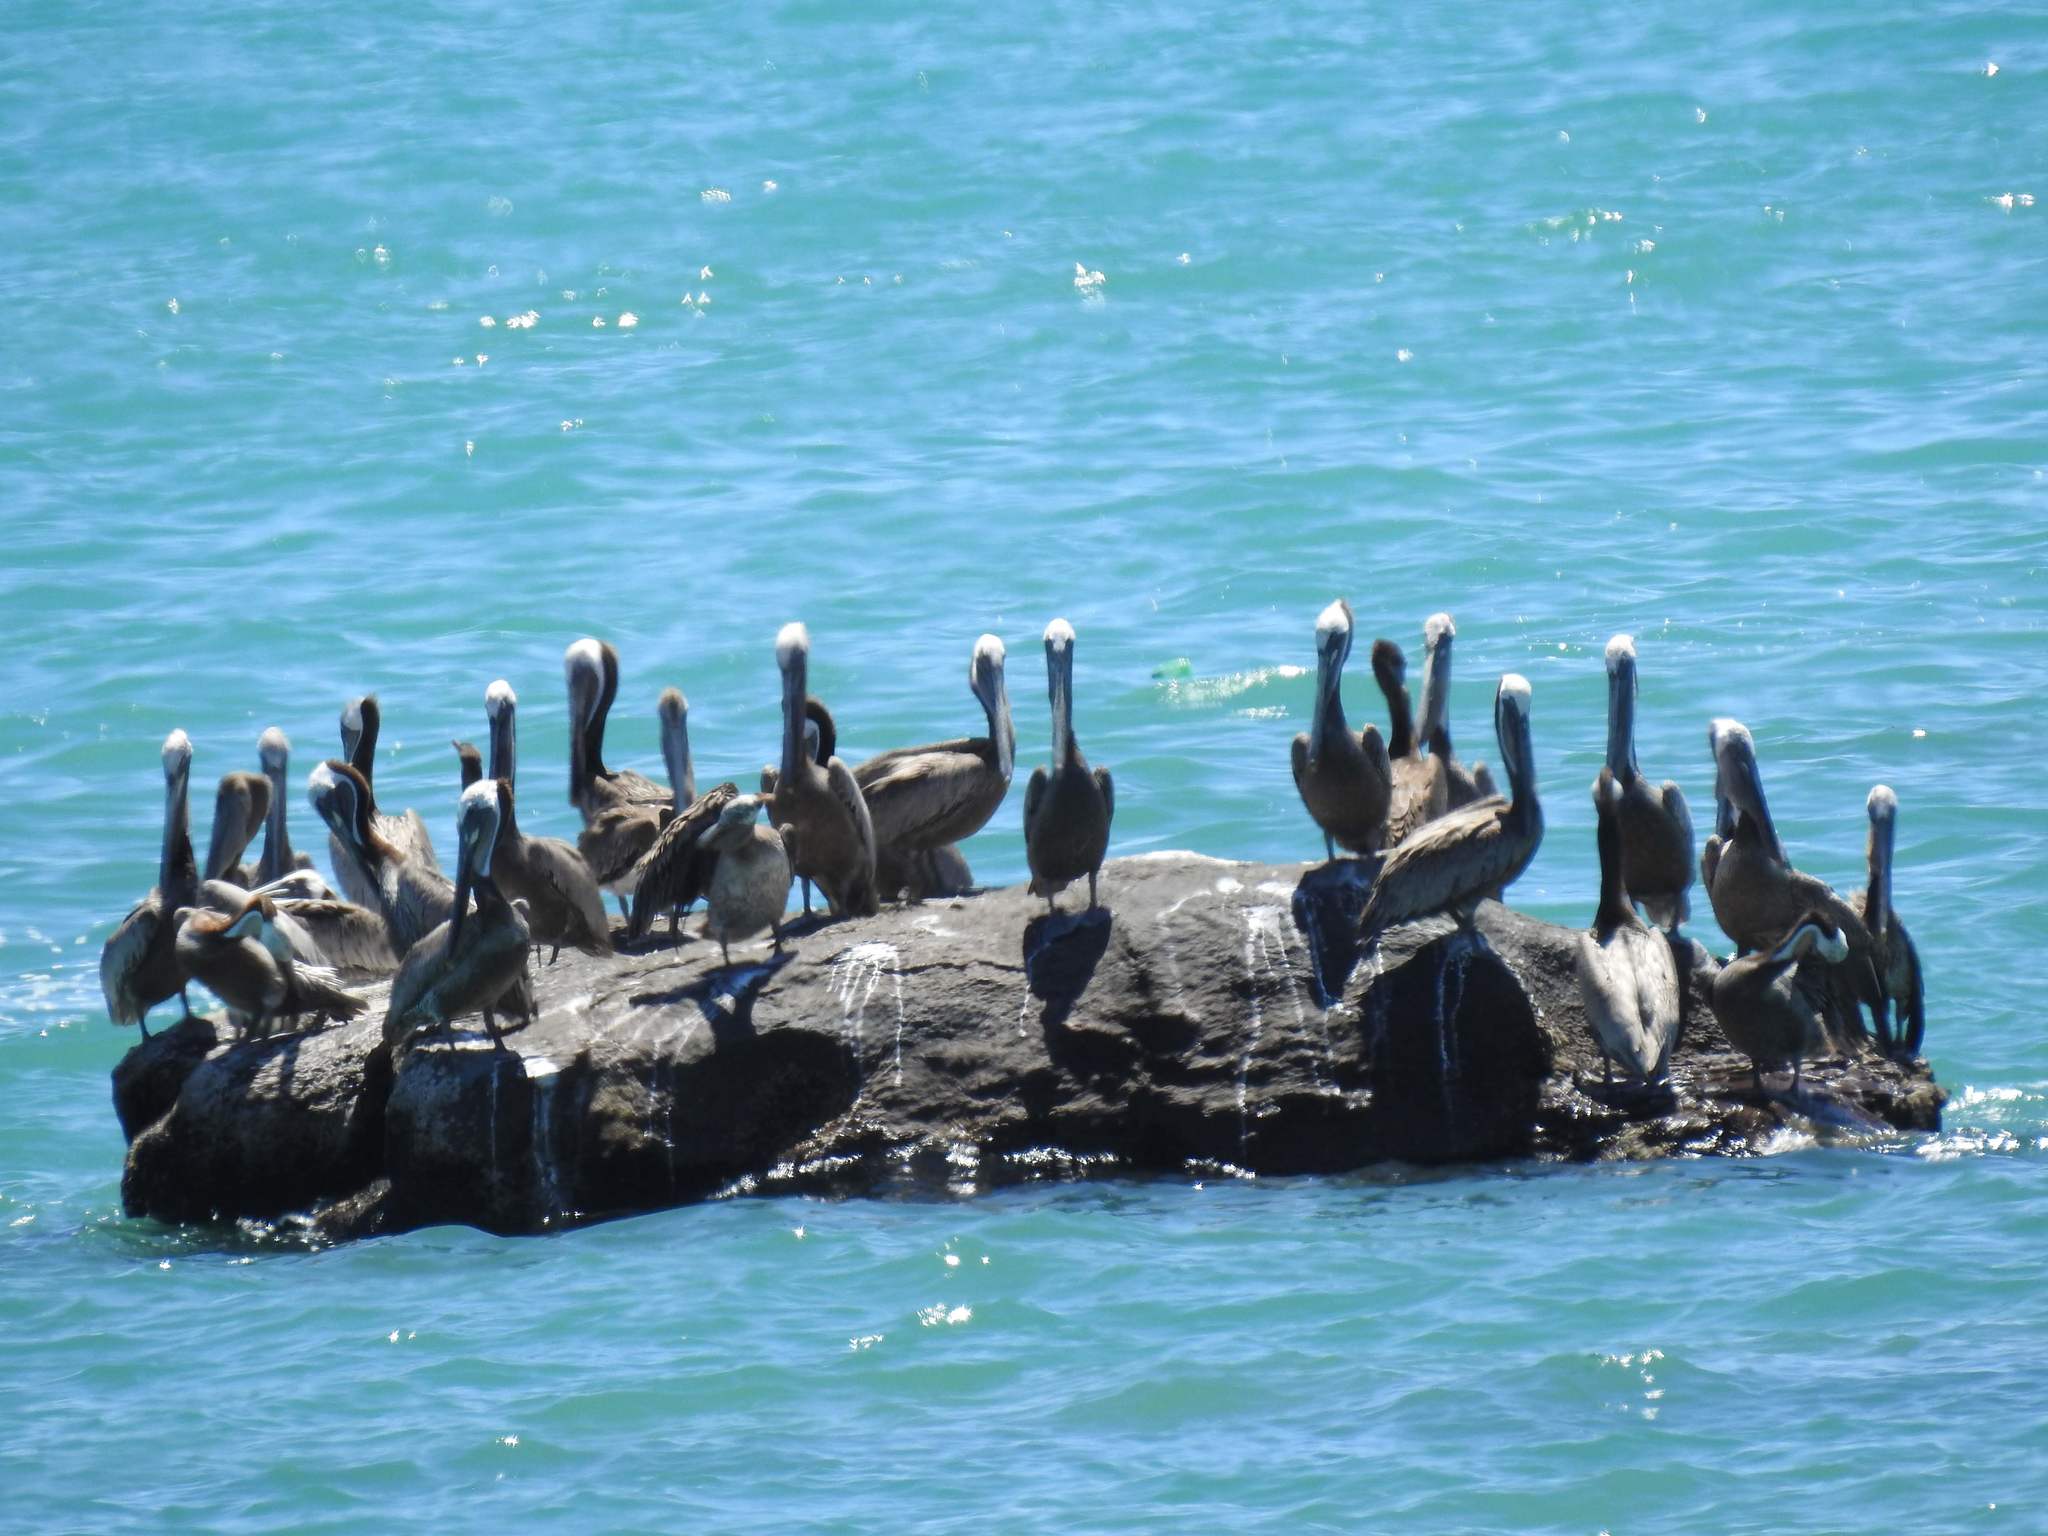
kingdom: Animalia
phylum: Chordata
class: Aves
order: Pelecaniformes
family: Pelecanidae
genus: Pelecanus
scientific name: Pelecanus occidentalis
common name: Brown pelican
